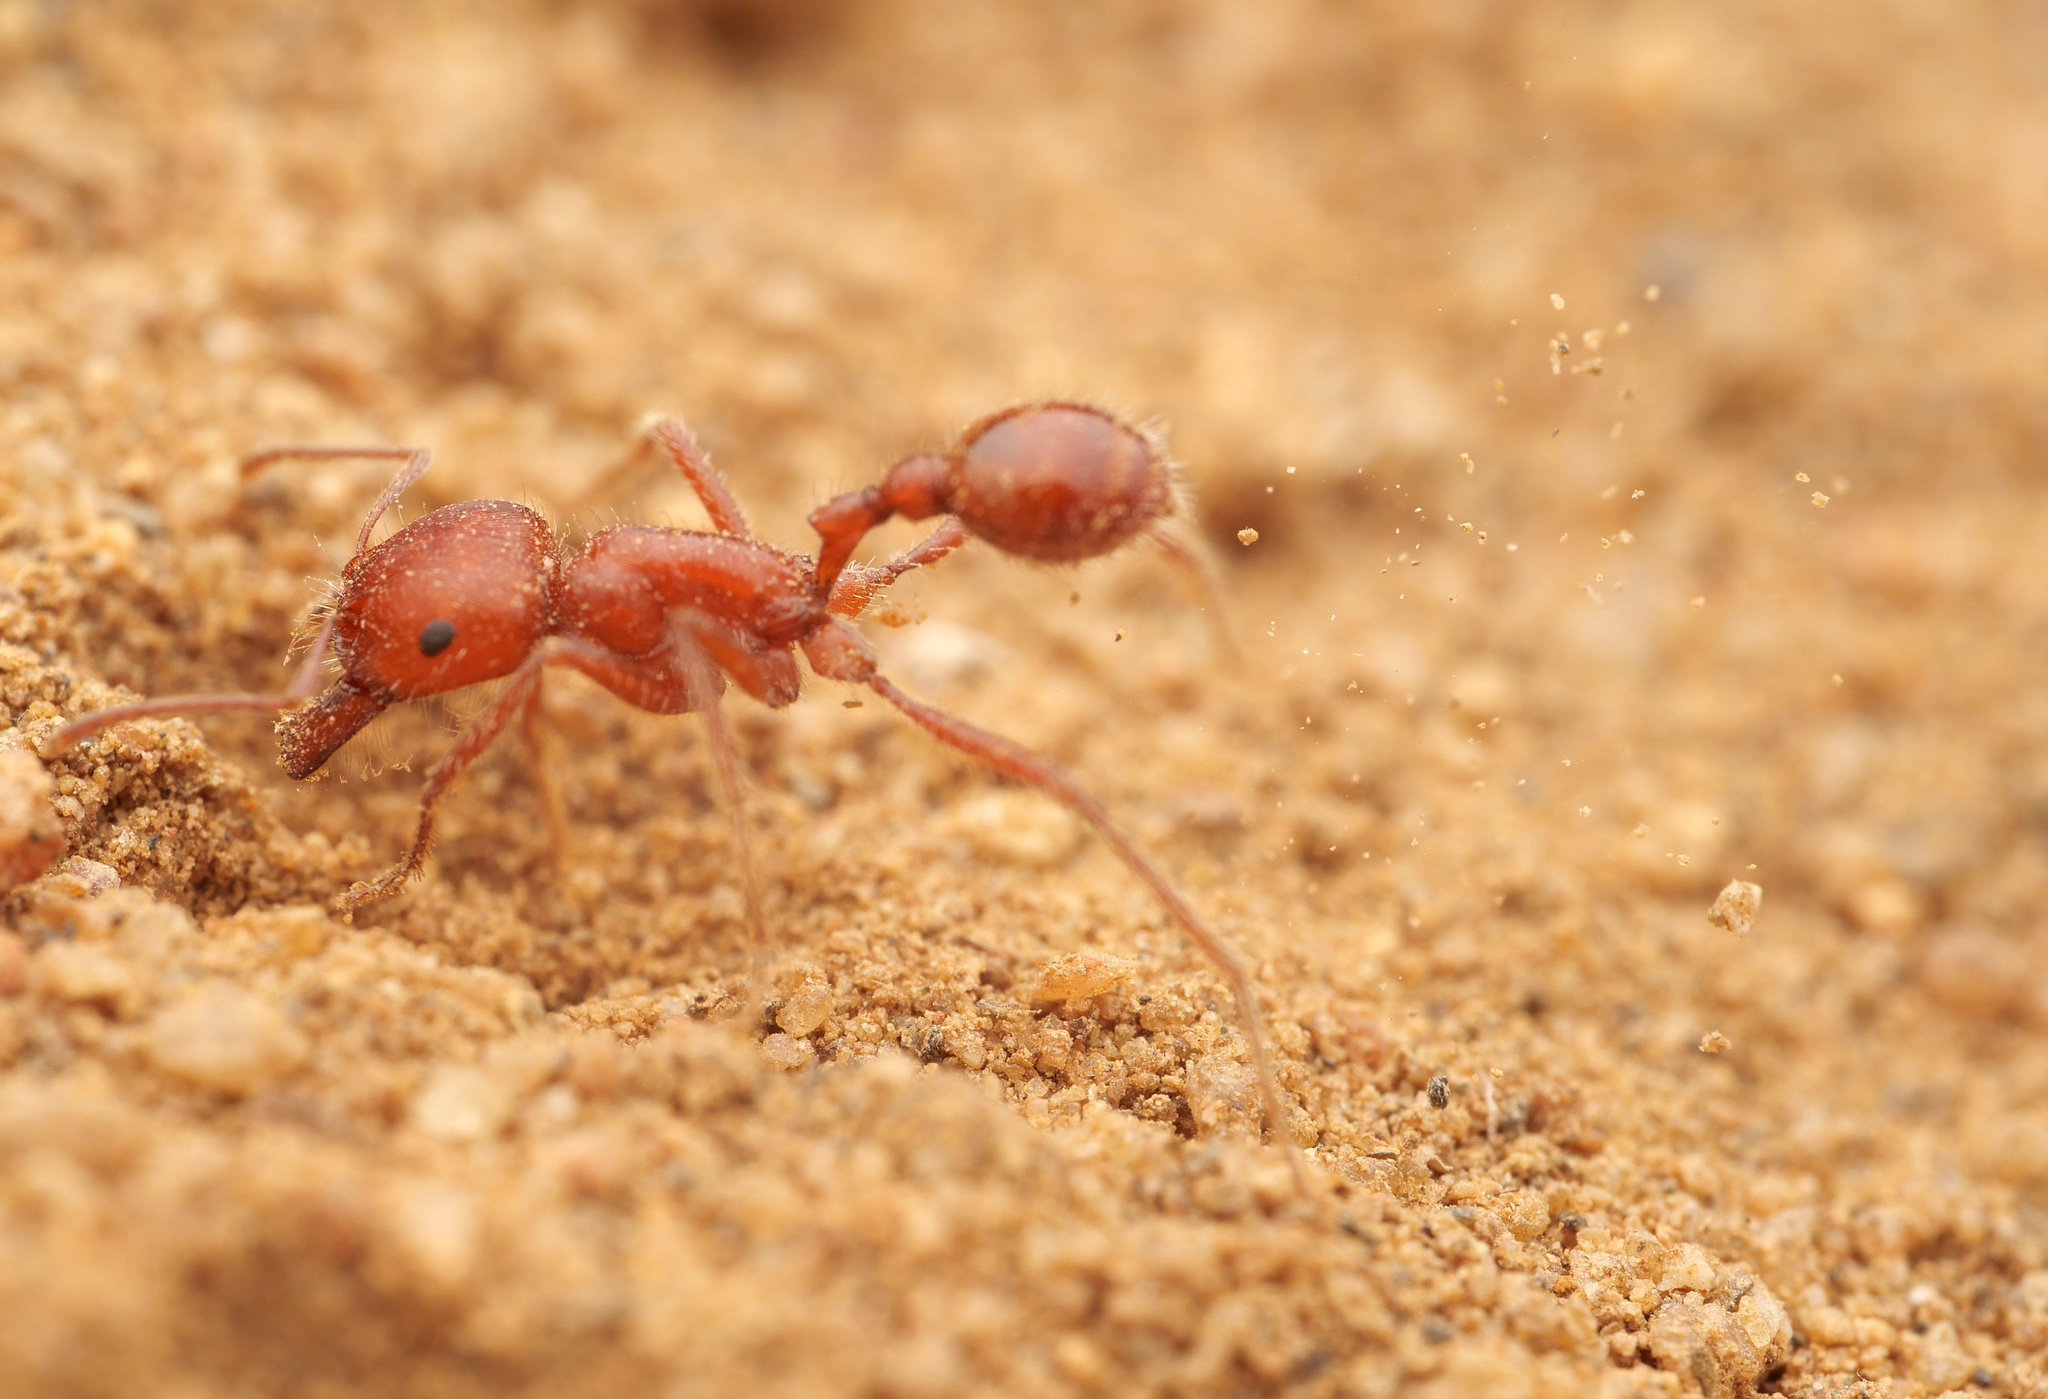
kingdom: Animalia
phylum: Arthropoda
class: Insecta
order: Hymenoptera
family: Formicidae
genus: Pogonomyrmex
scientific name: Pogonomyrmex californicus
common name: California harvester ant
